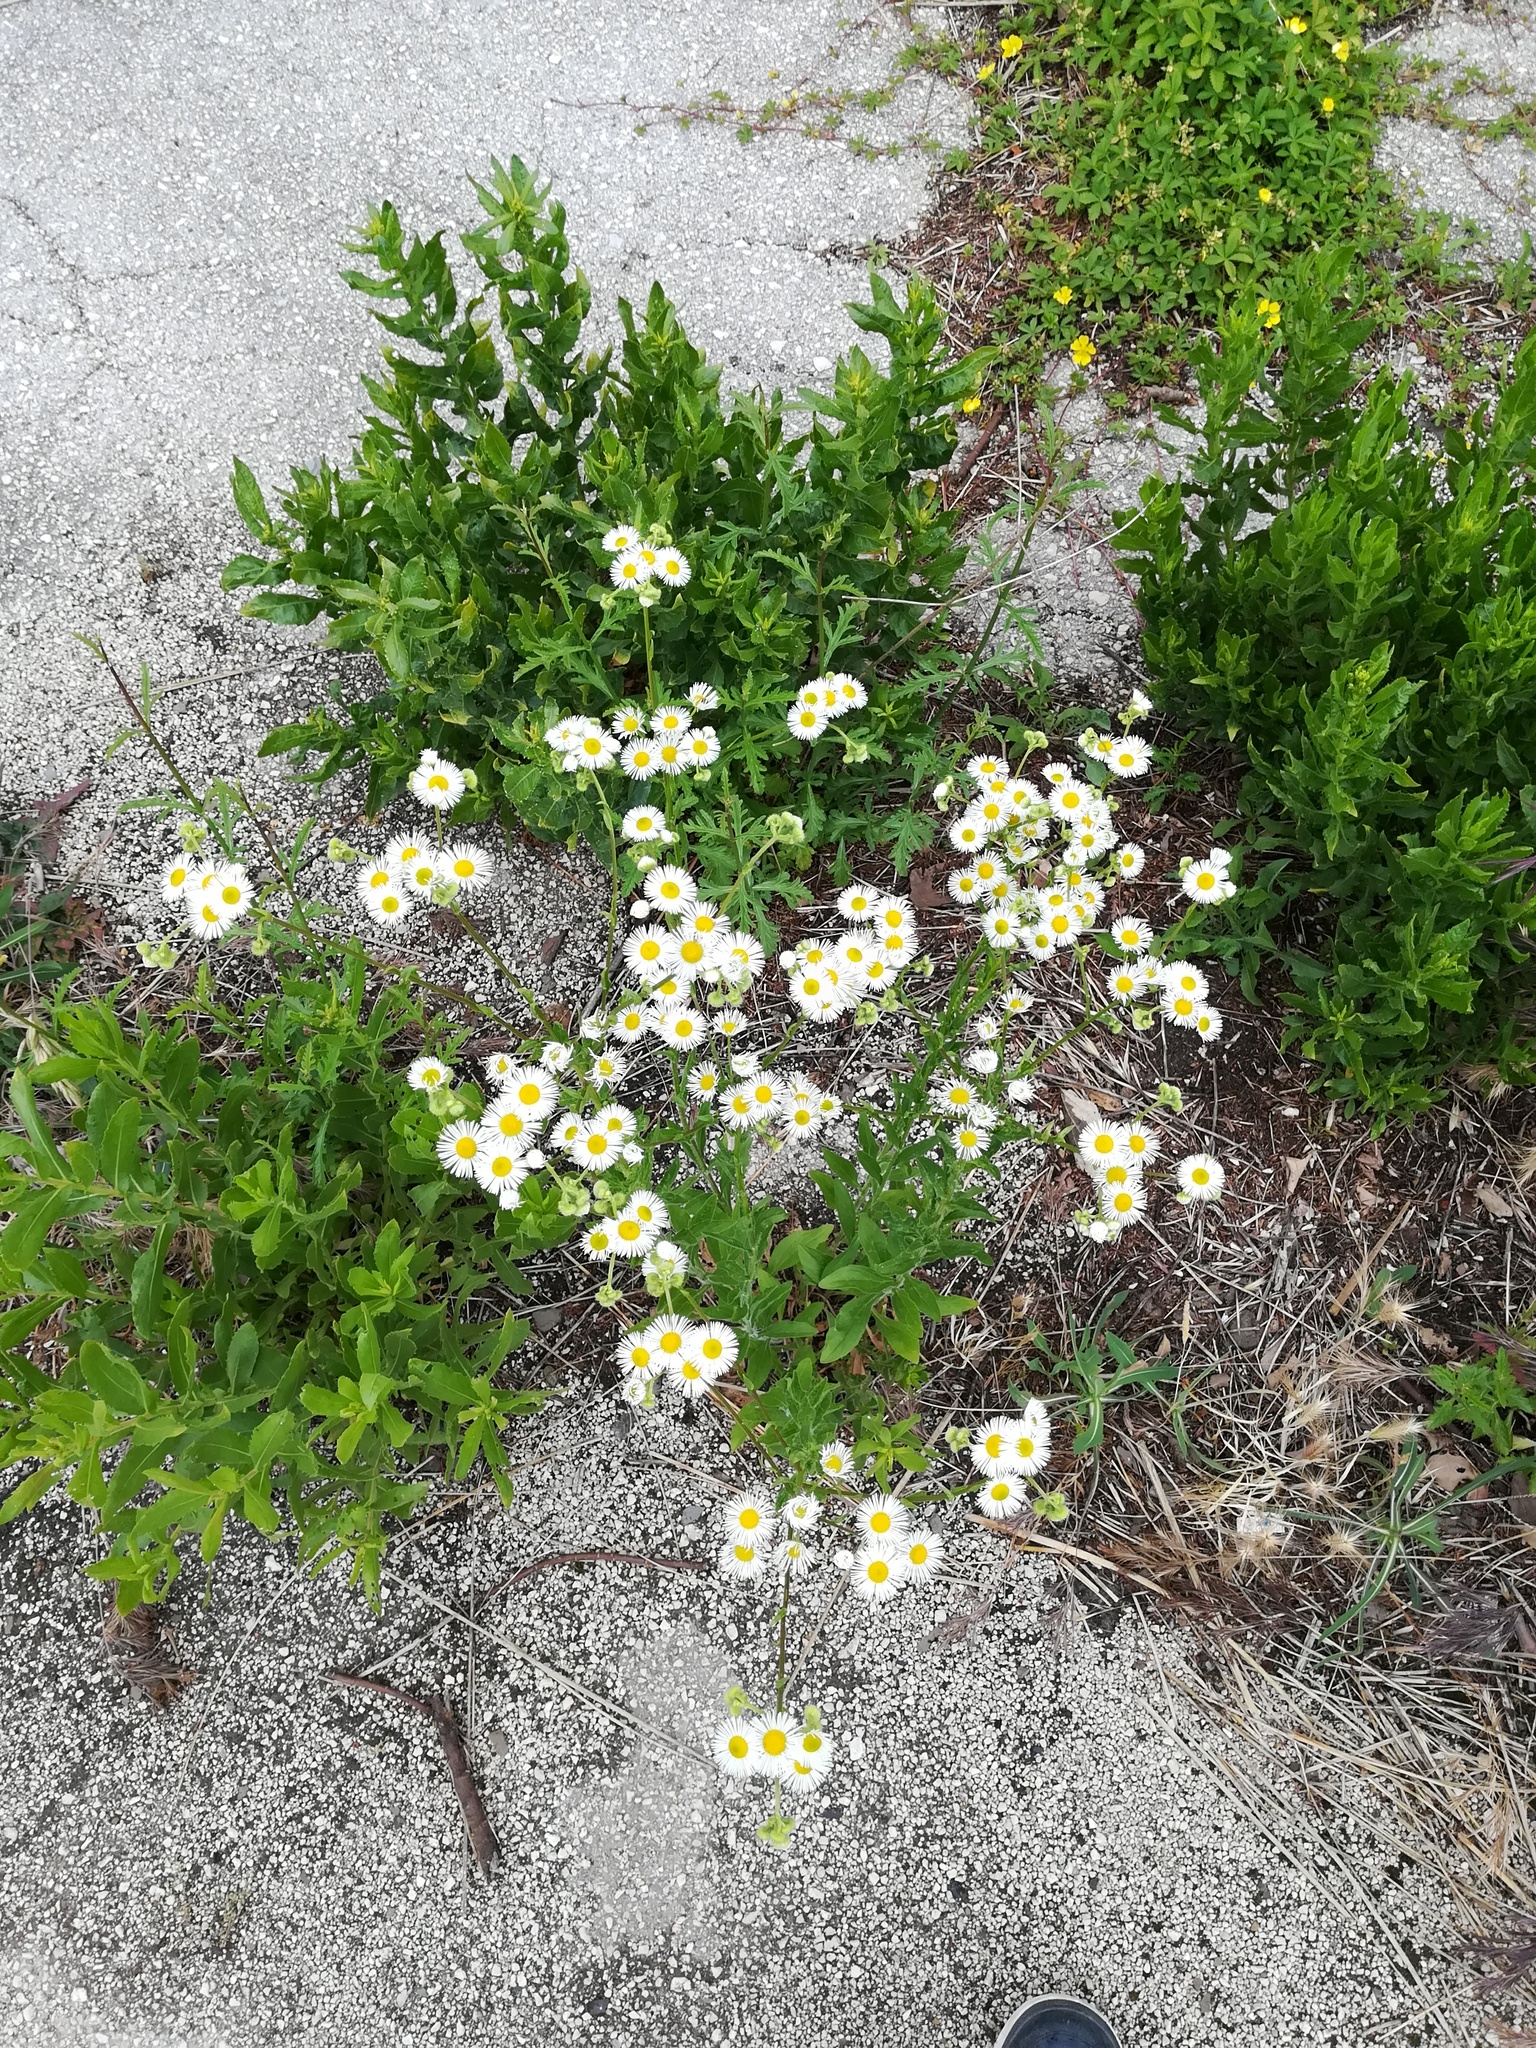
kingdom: Plantae
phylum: Tracheophyta
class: Magnoliopsida
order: Asterales
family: Asteraceae
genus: Erigeron
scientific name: Erigeron annuus
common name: Tall fleabane
